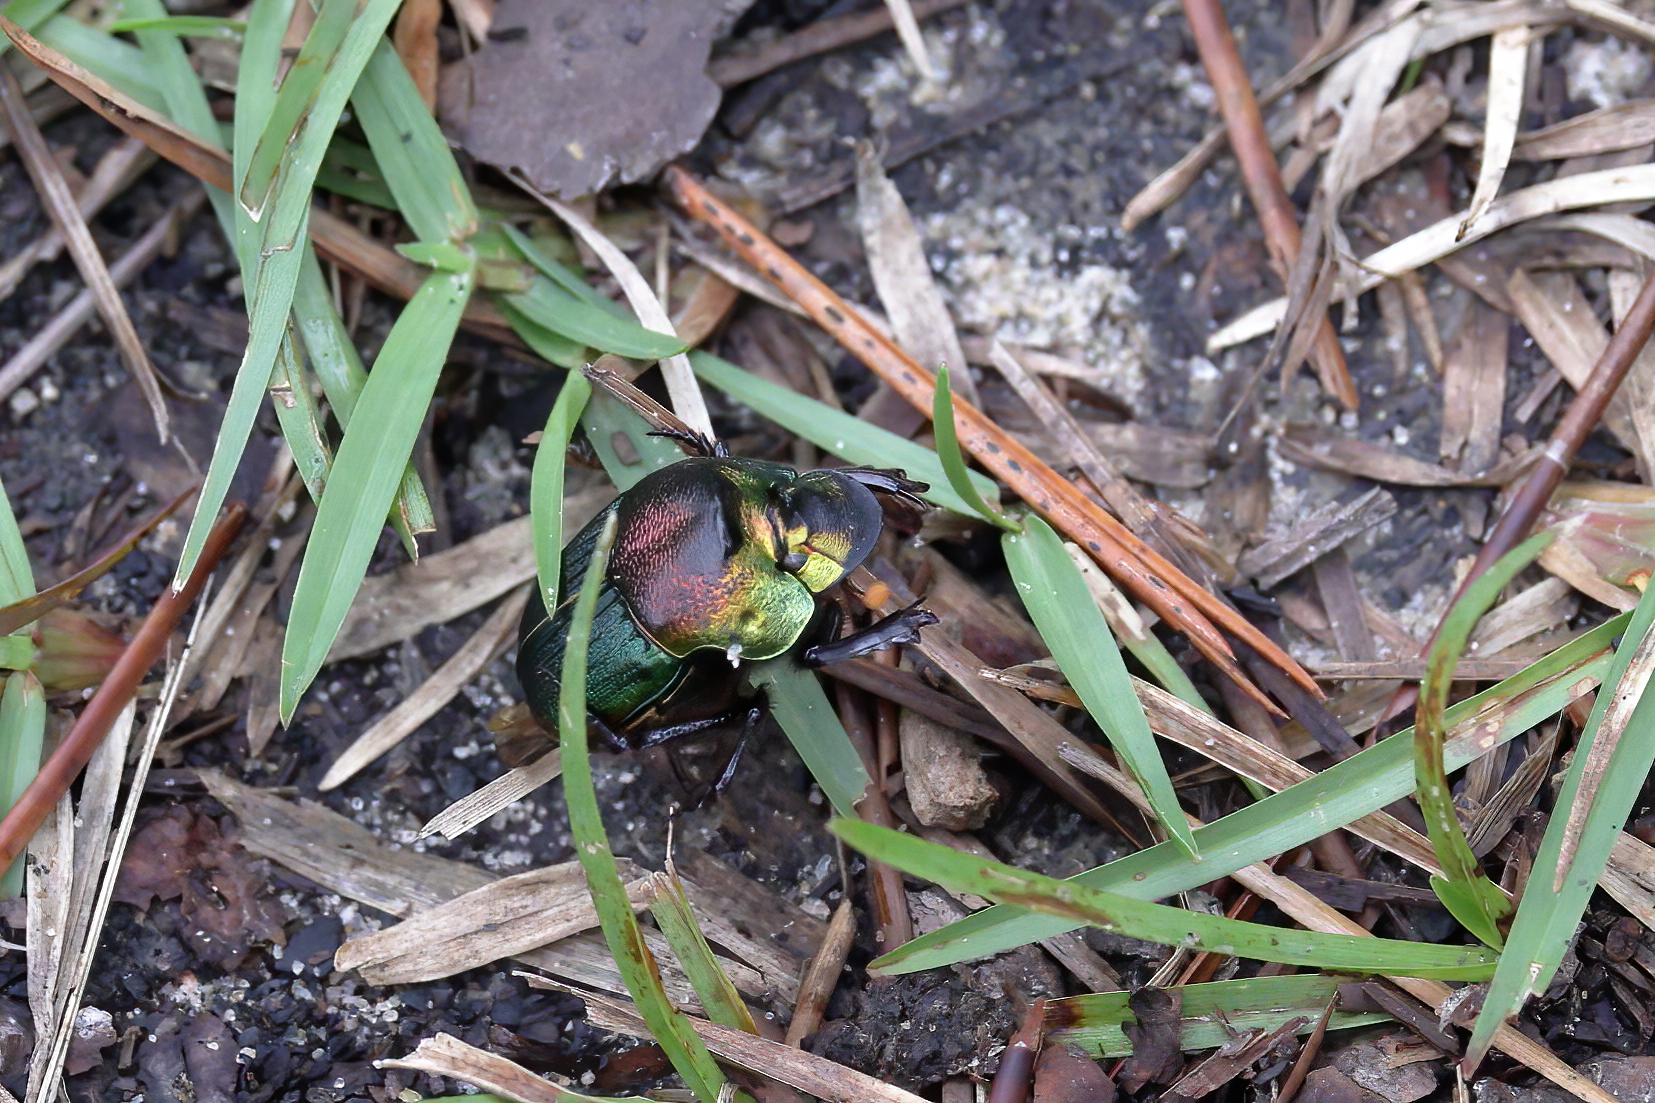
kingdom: Animalia
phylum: Arthropoda
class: Insecta
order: Coleoptera
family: Scarabaeidae
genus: Phanaeus
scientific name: Phanaeus vindex
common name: Rainbow scarab
